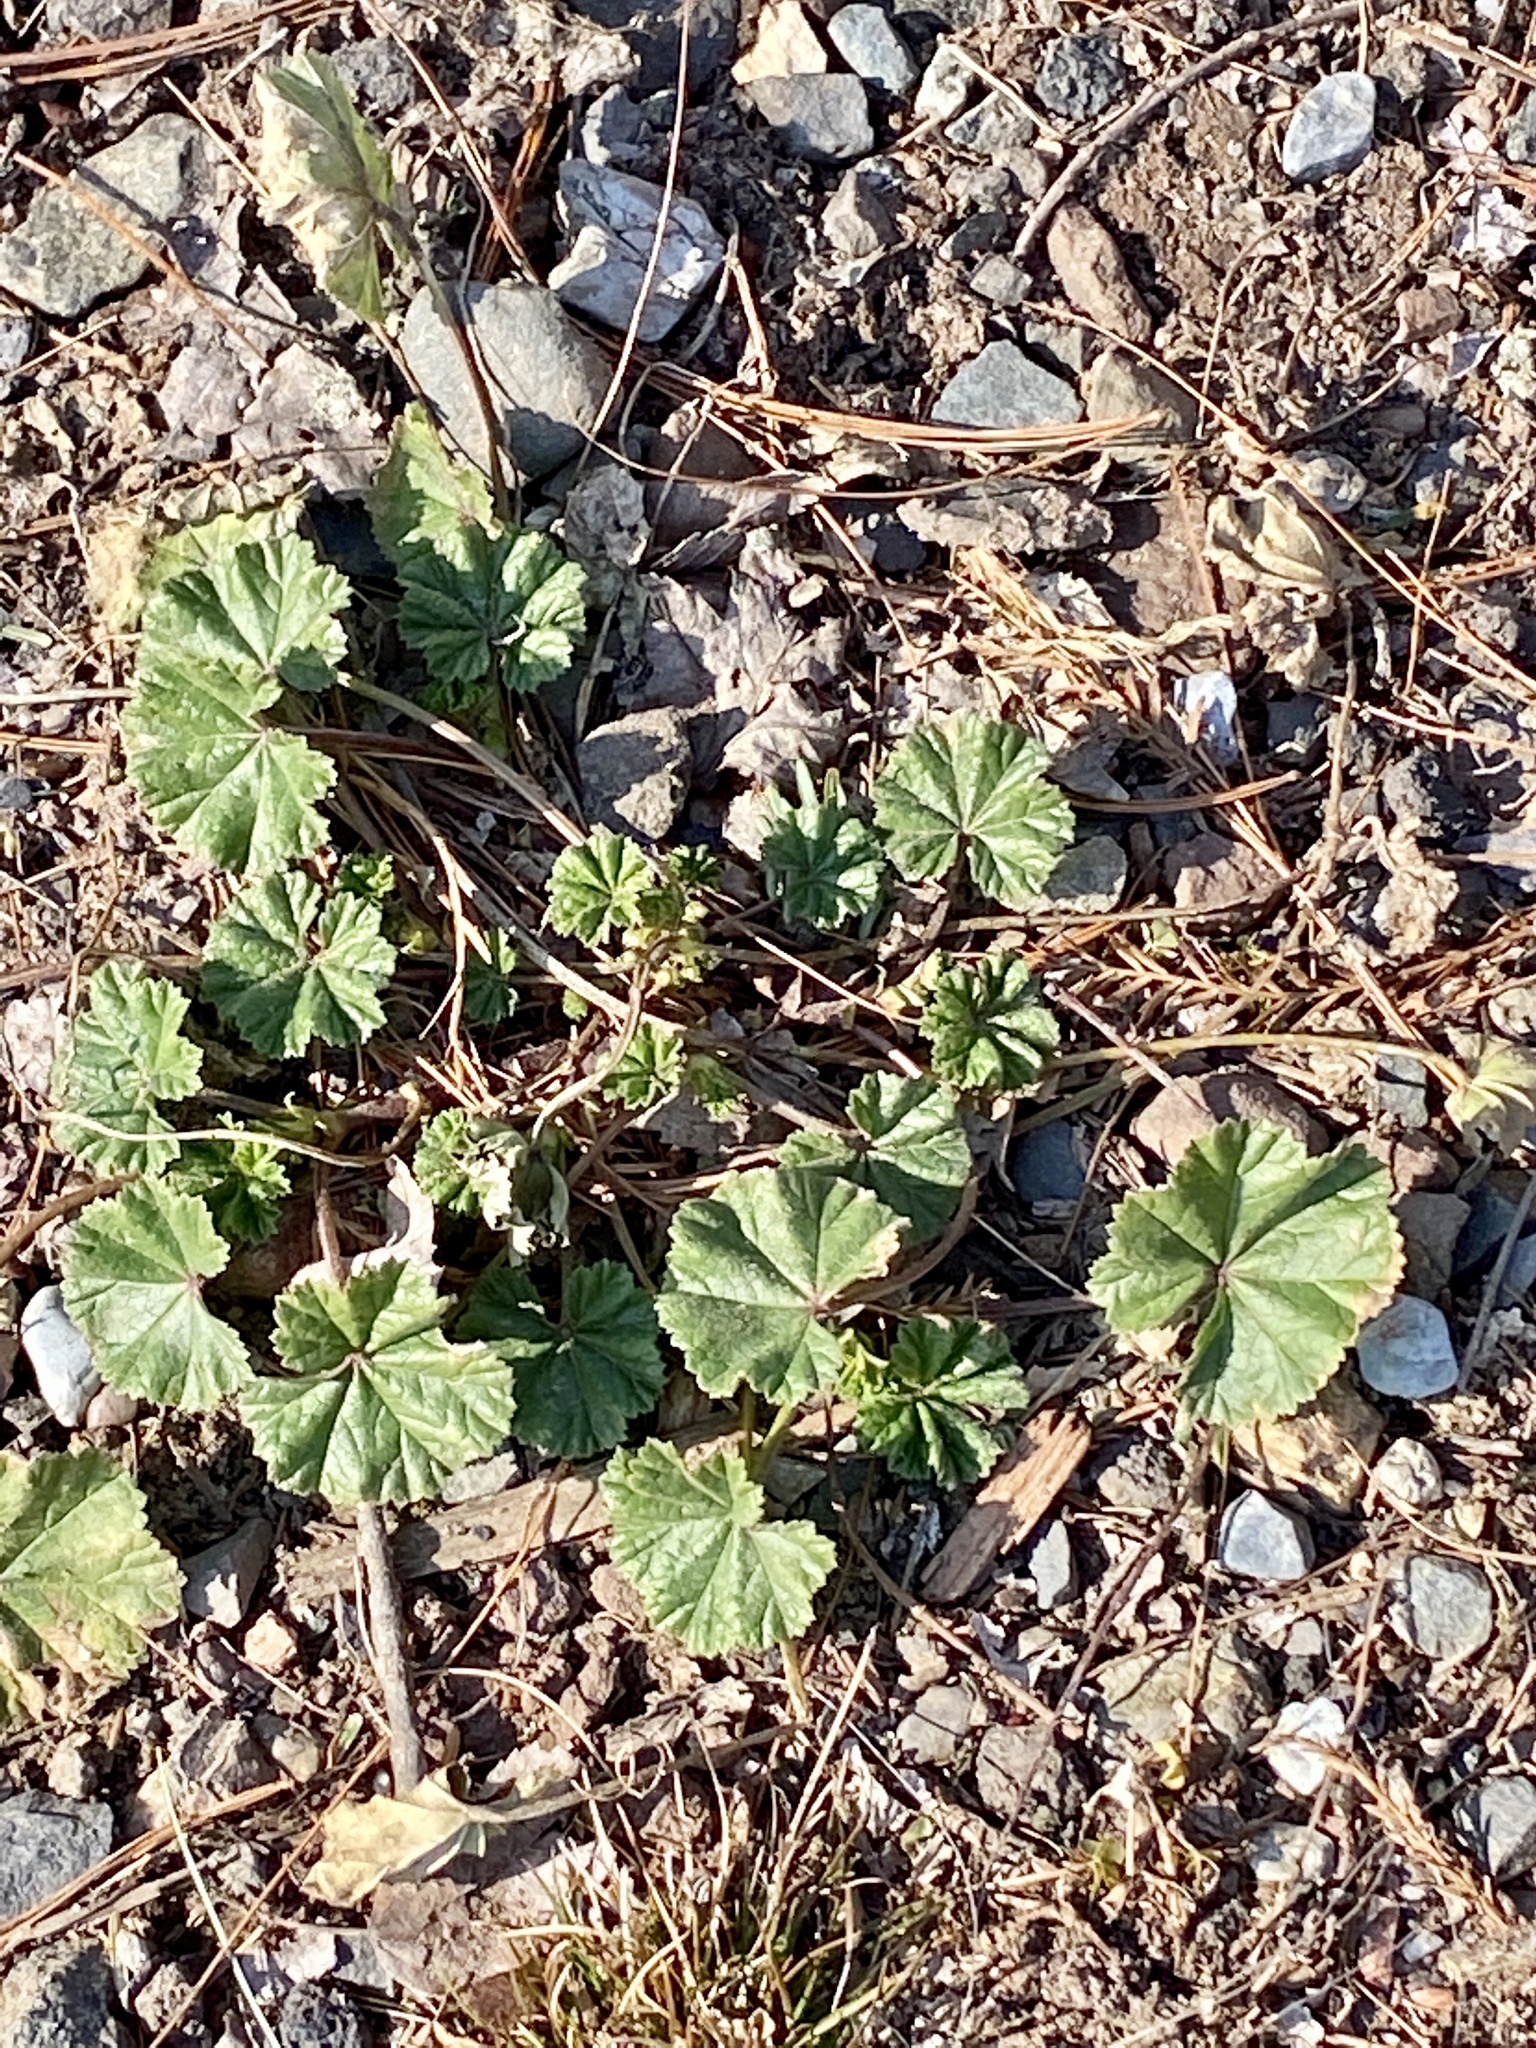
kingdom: Plantae
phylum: Tracheophyta
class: Magnoliopsida
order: Malvales
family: Malvaceae
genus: Malva
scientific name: Malva neglecta
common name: Common mallow
